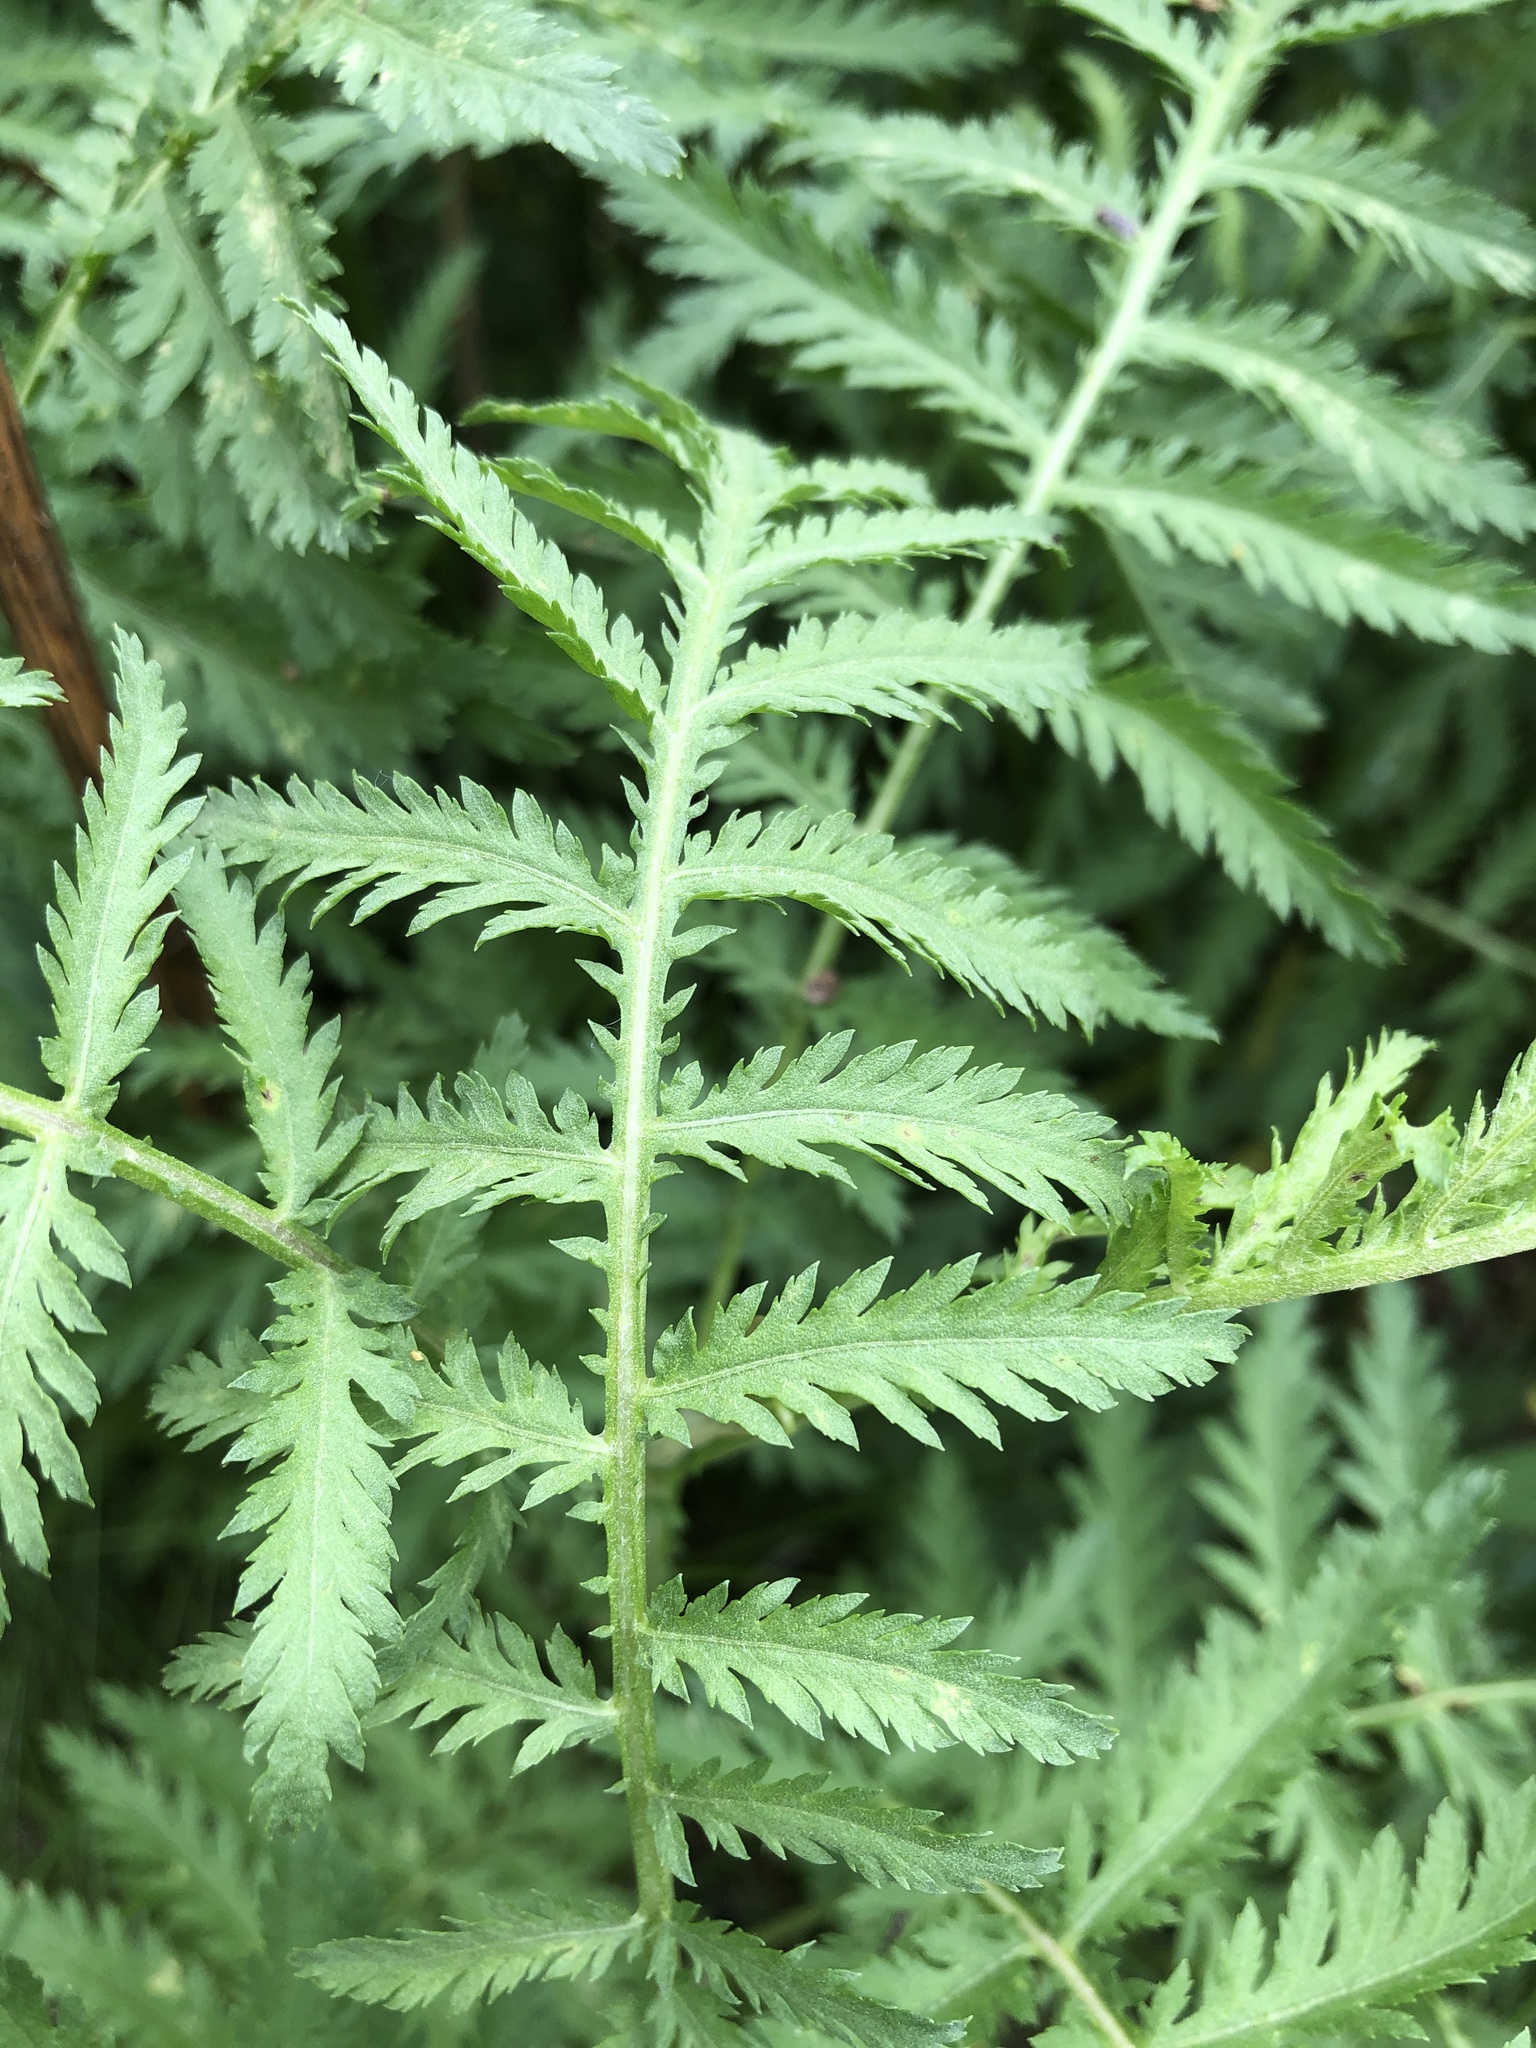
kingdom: Plantae
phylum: Tracheophyta
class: Magnoliopsida
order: Asterales
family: Asteraceae
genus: Tanacetum
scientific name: Tanacetum vulgare
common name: Common tansy
